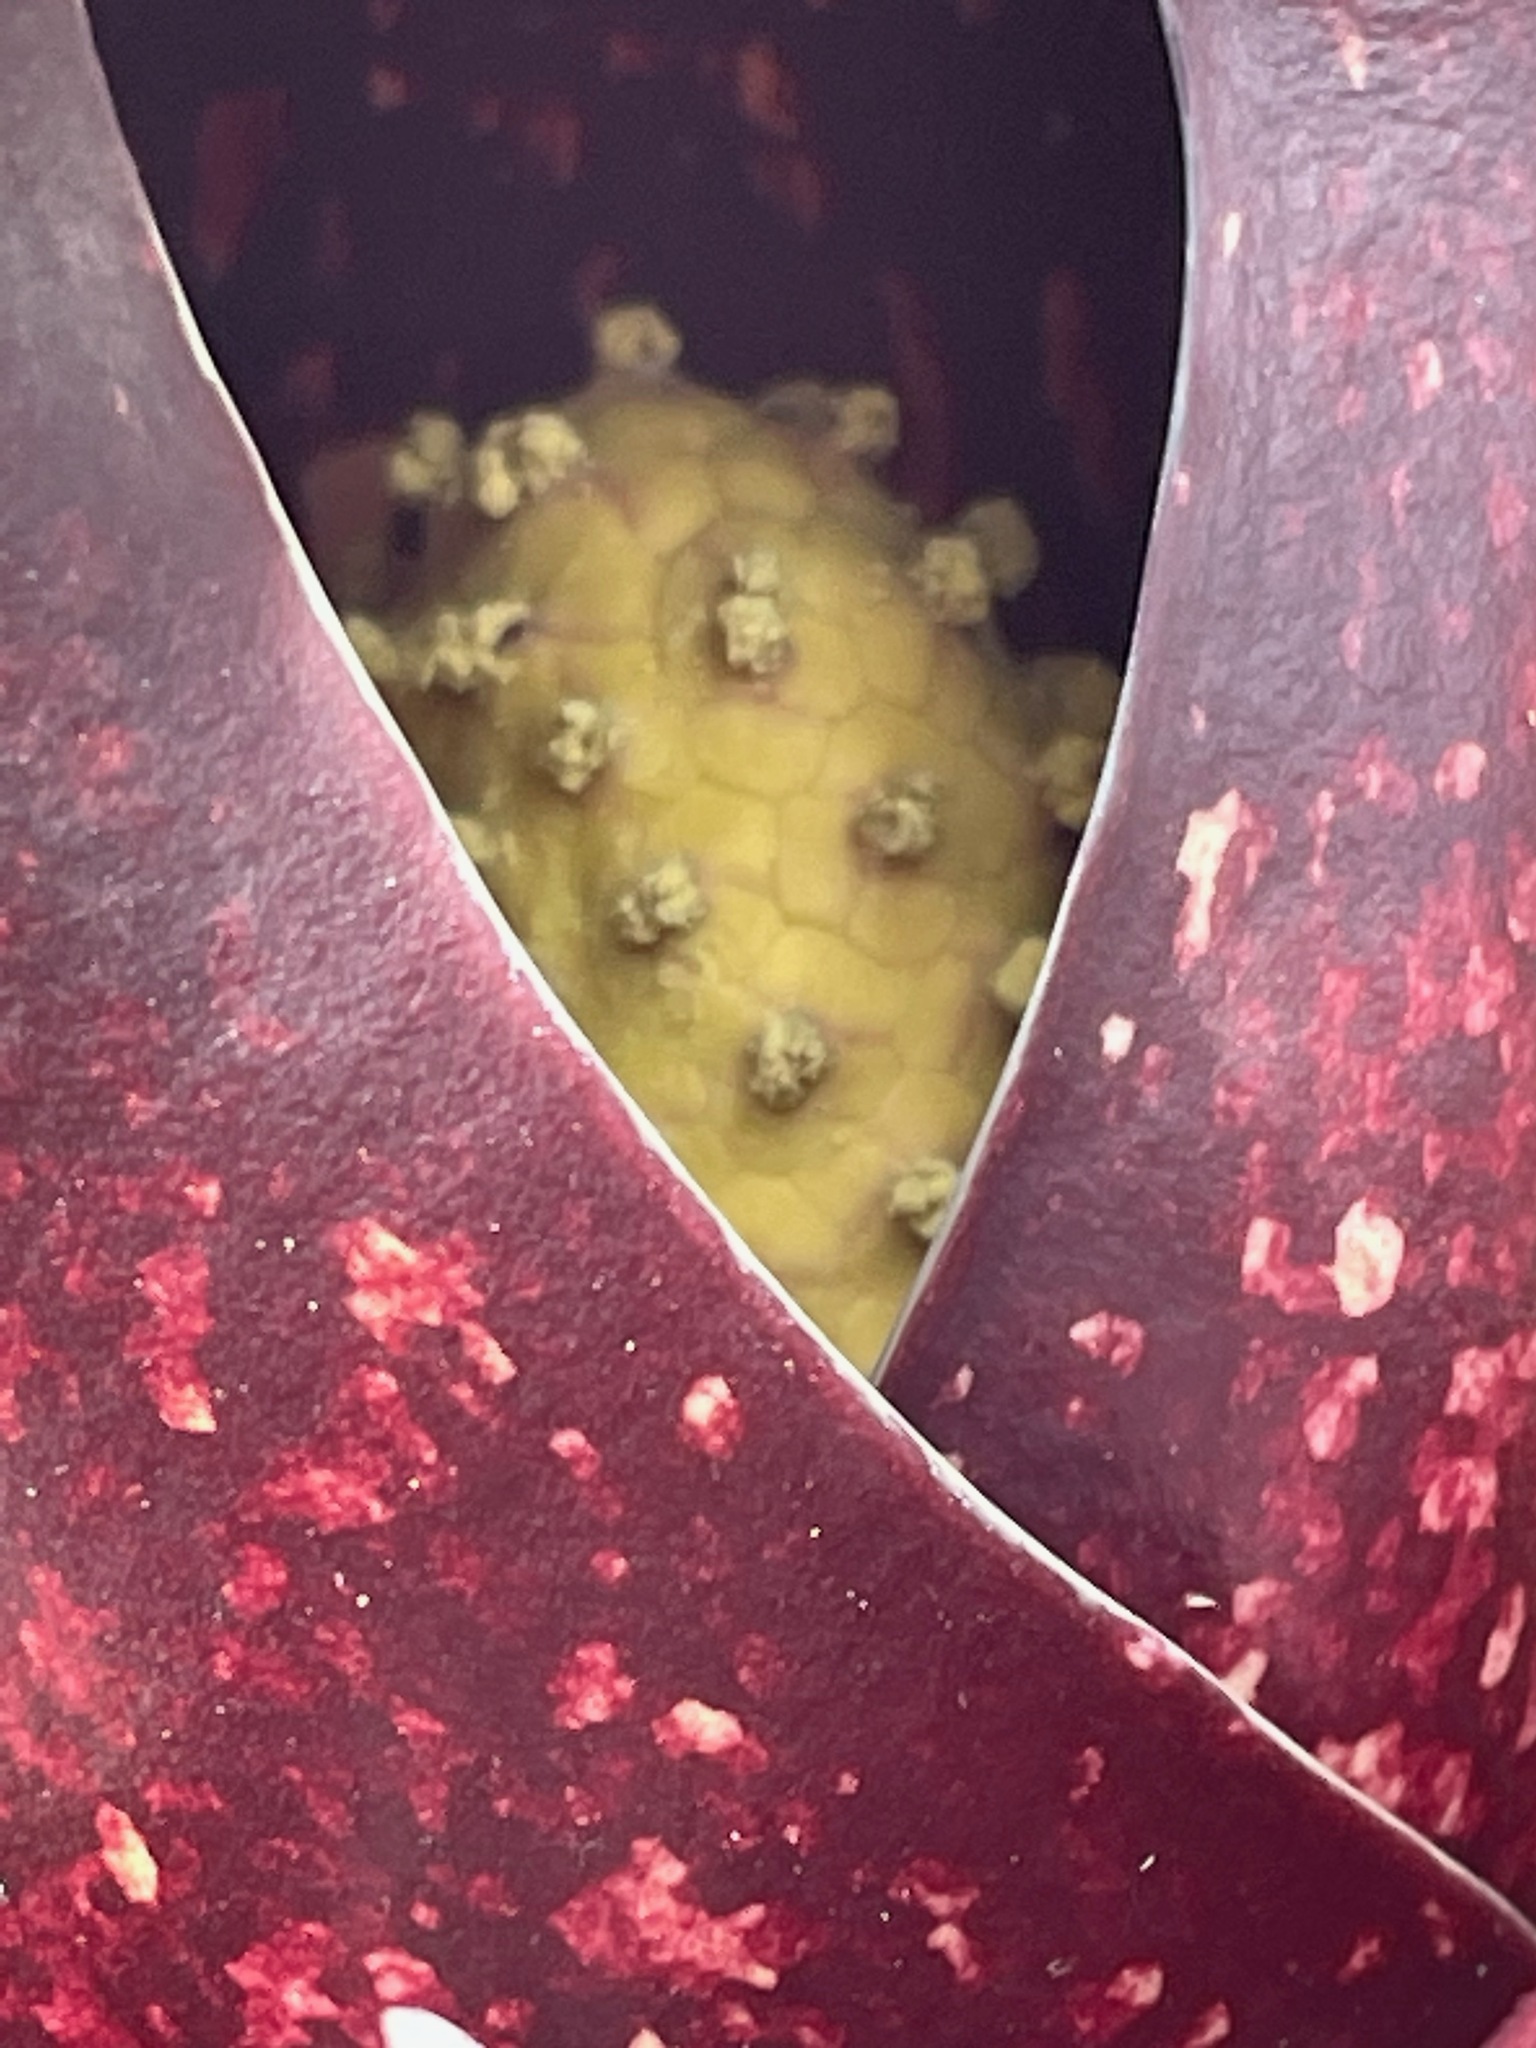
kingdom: Plantae
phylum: Tracheophyta
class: Liliopsida
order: Alismatales
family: Araceae
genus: Symplocarpus
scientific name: Symplocarpus foetidus
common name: Eastern skunk cabbage
